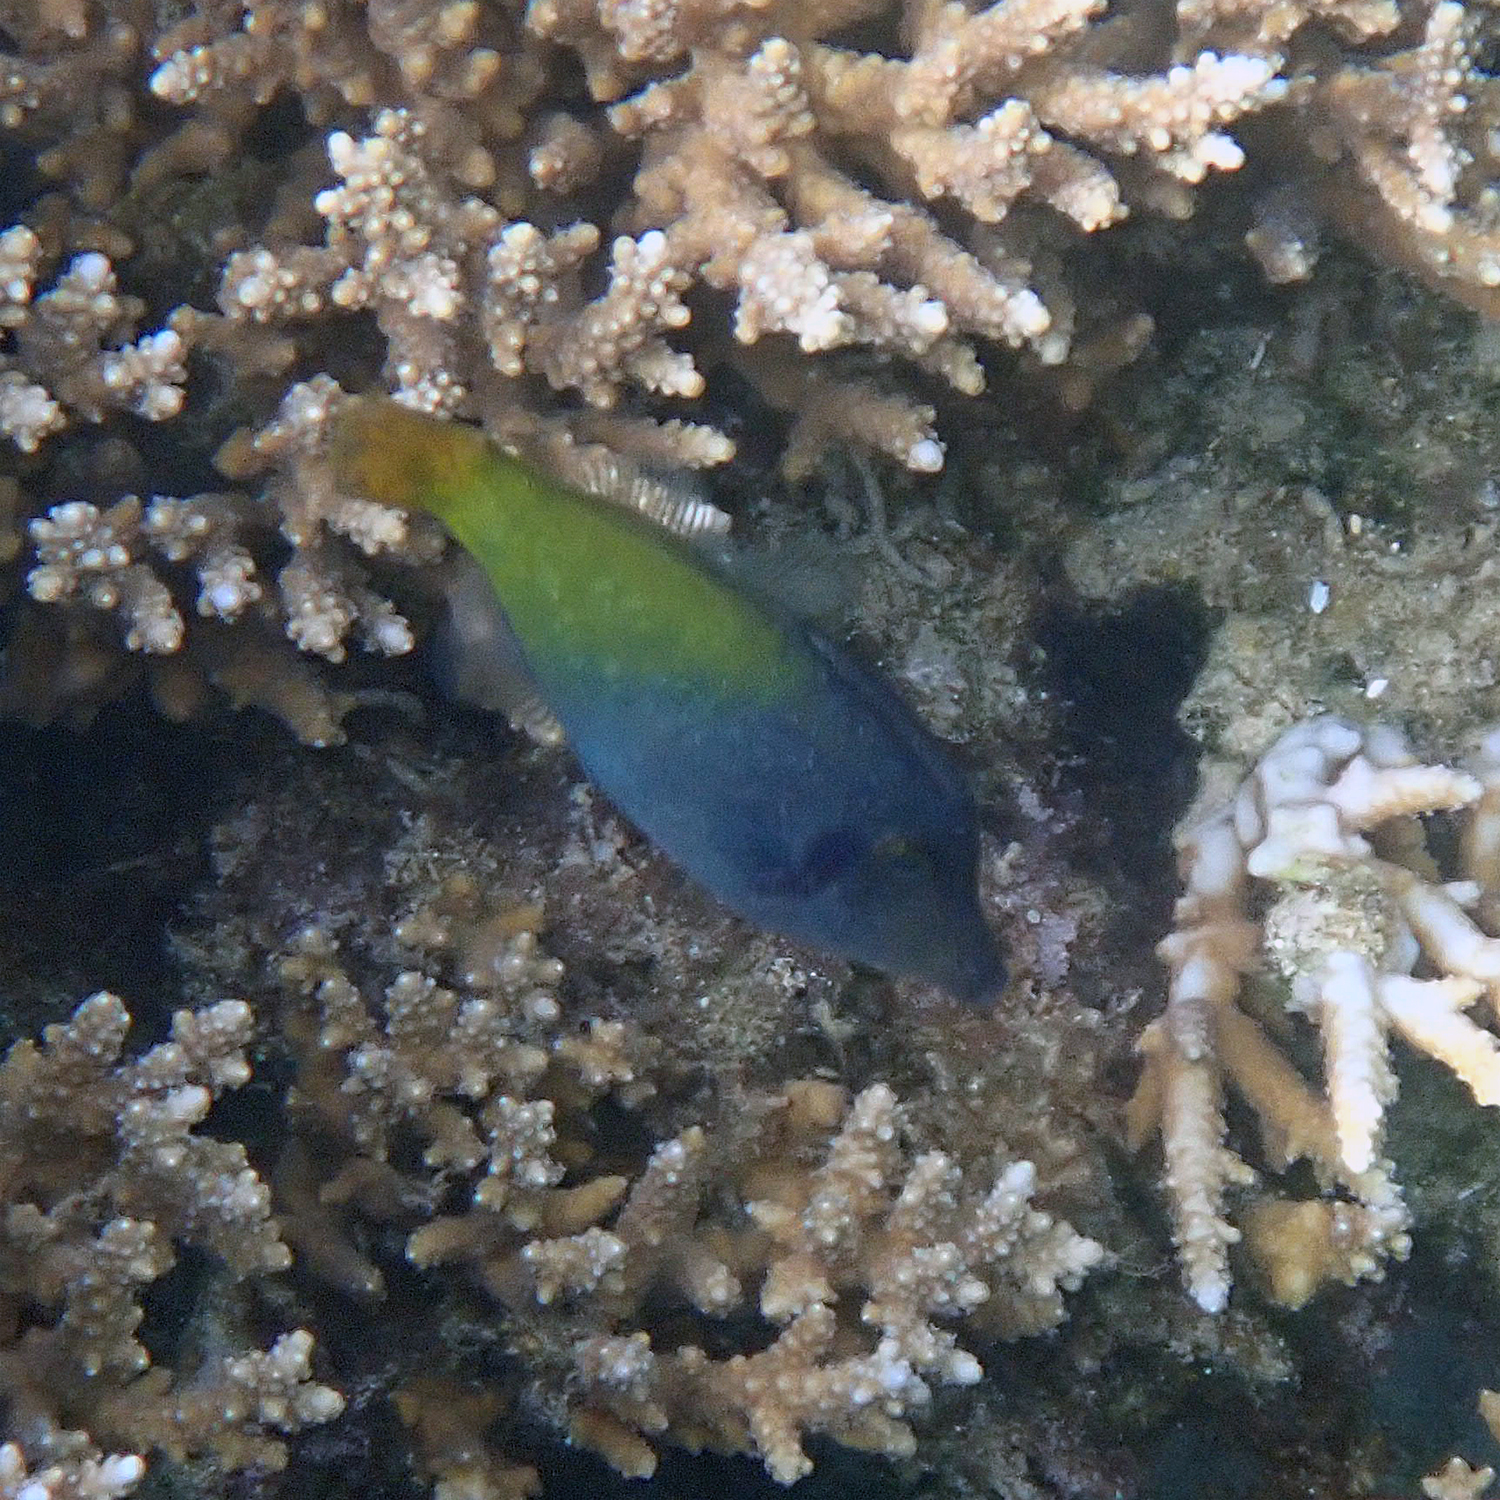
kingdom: Animalia
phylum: Chordata
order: Tetraodontiformes
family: Monacanthidae
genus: Pervagor
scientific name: Pervagor janthinosoma
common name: Blackbar filefish
